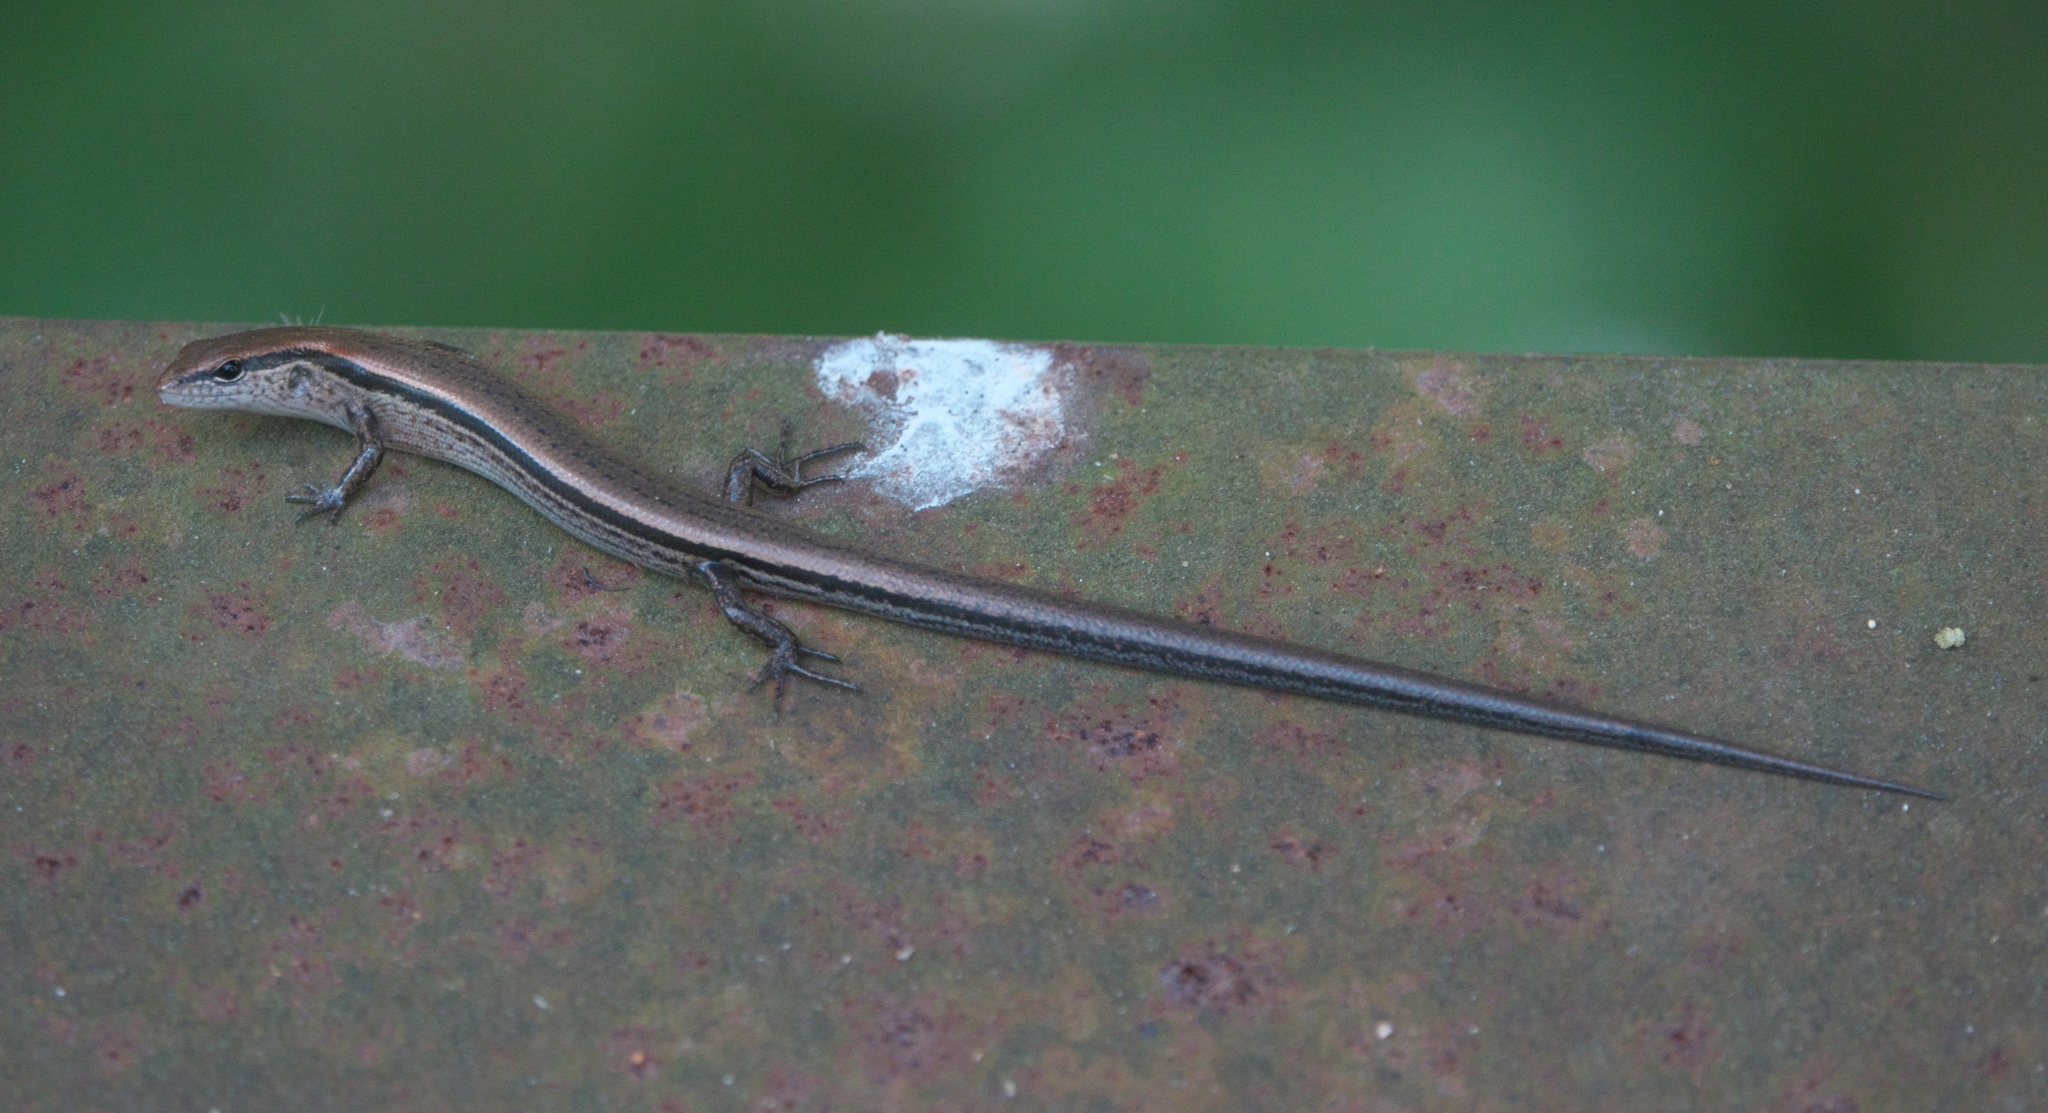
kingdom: Animalia
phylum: Chordata
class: Squamata
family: Scincidae
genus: Scincella
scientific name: Scincella lateralis
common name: Ground skink
